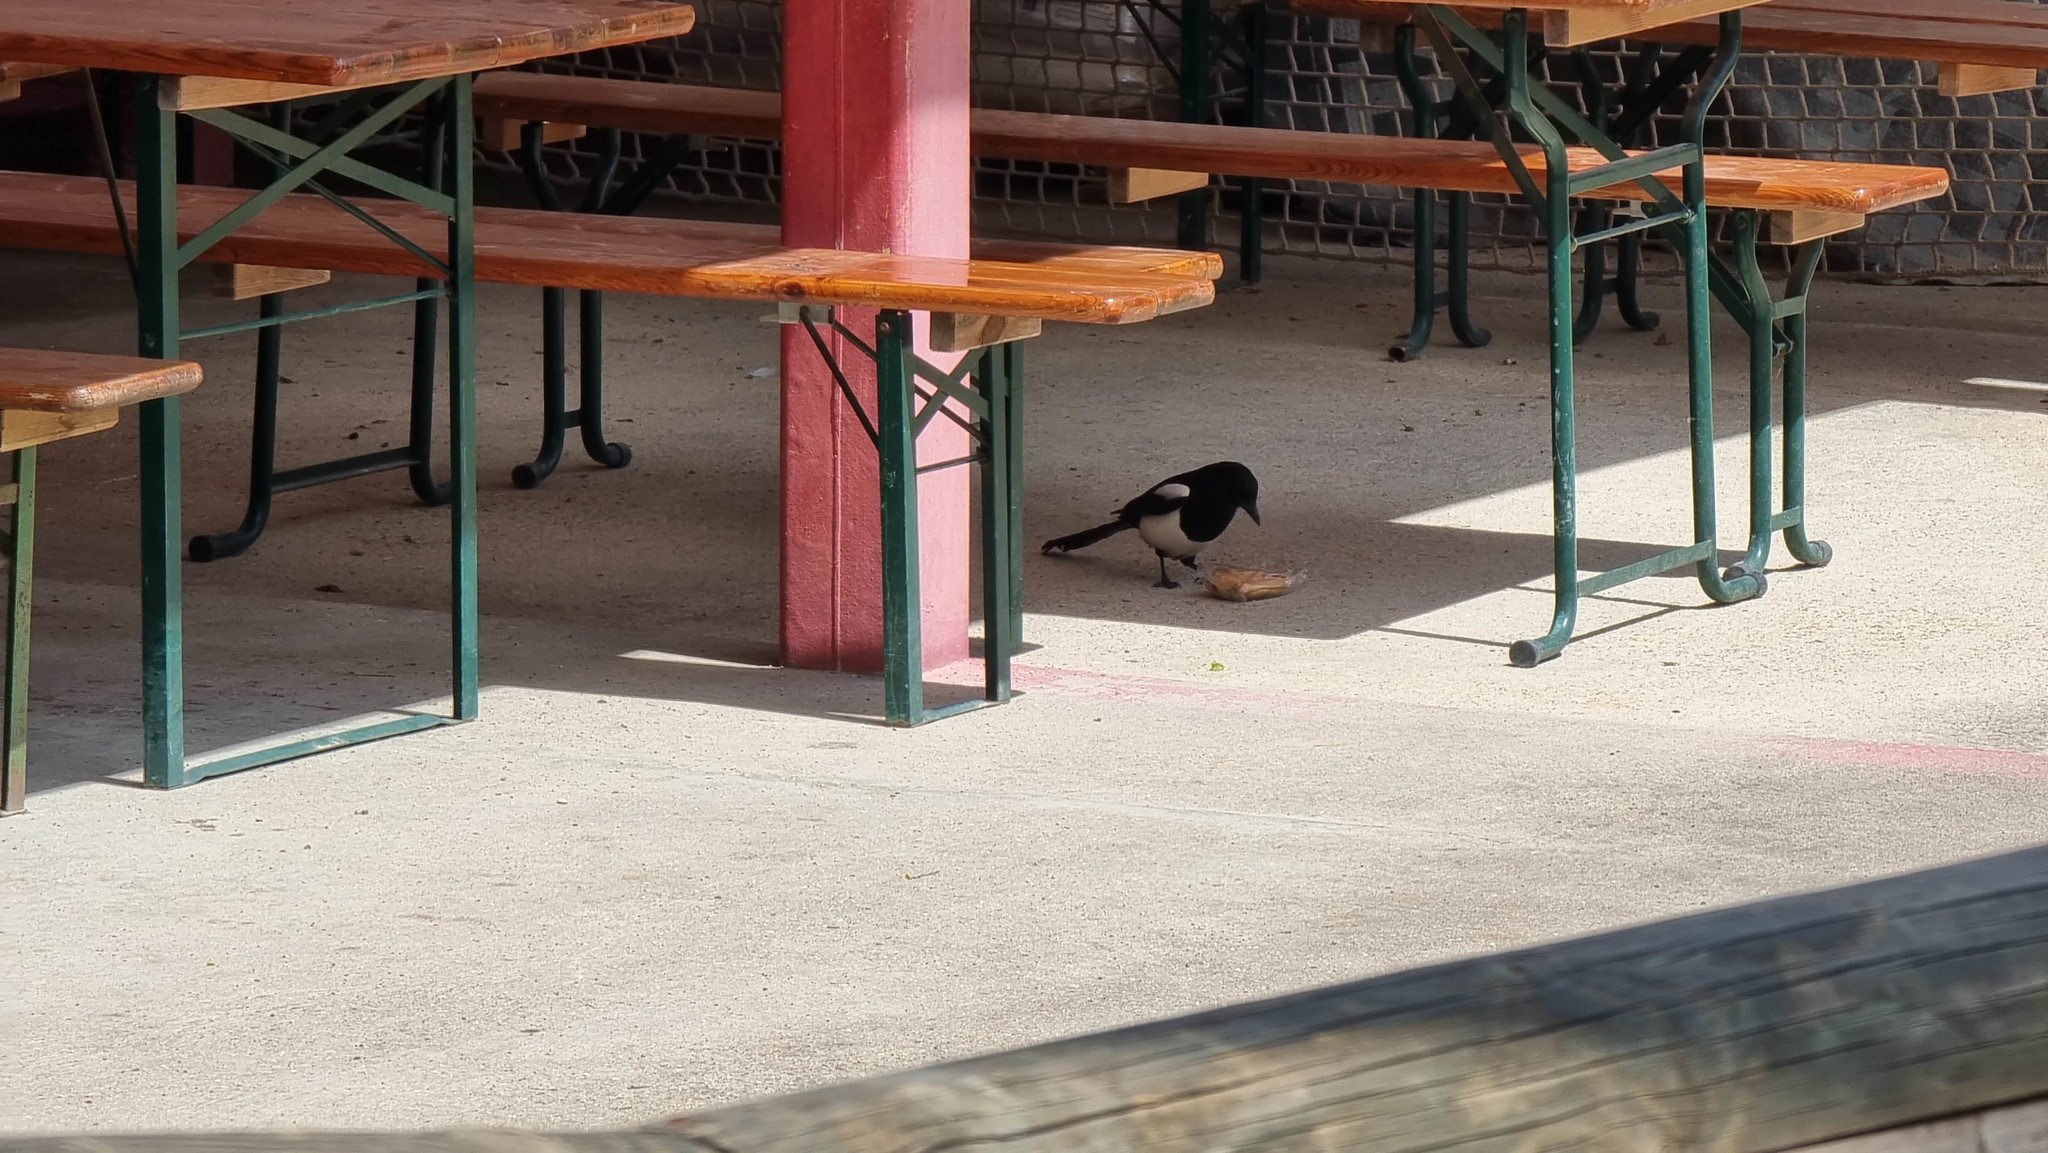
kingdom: Animalia
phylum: Chordata
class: Aves
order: Passeriformes
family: Corvidae
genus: Pica
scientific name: Pica pica
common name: Eurasian magpie
